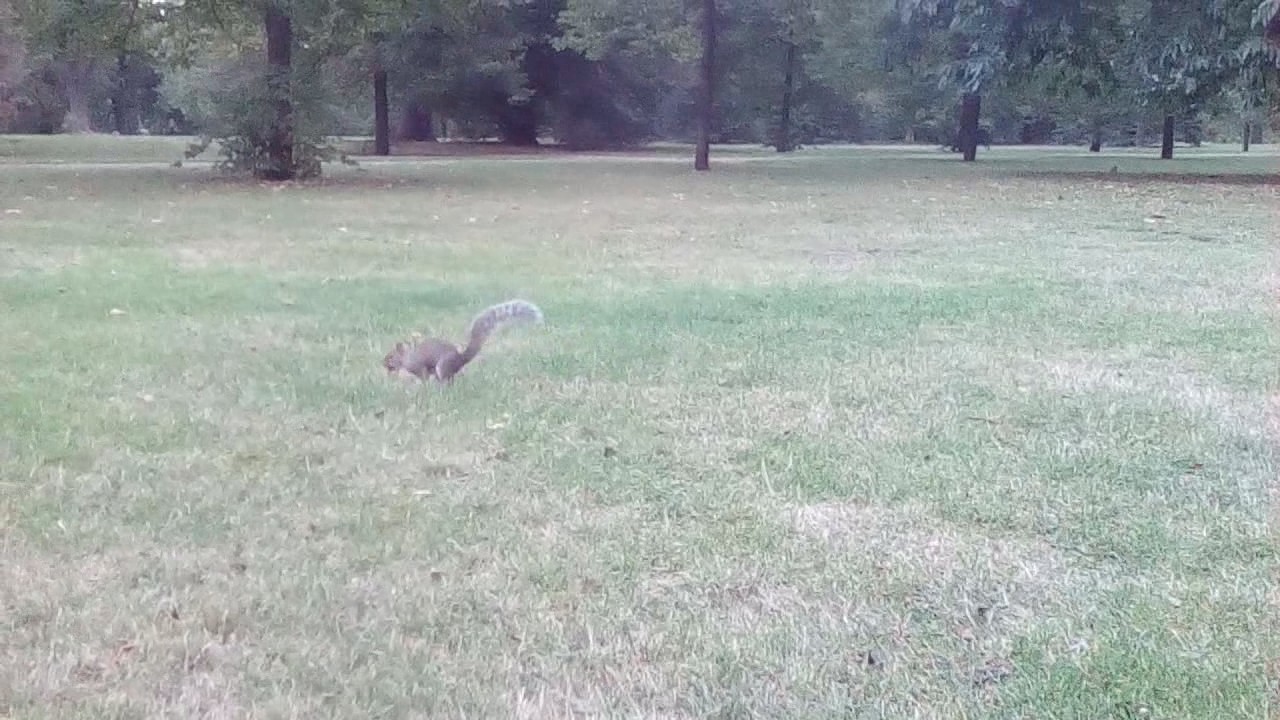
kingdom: Animalia
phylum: Chordata
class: Mammalia
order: Rodentia
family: Sciuridae
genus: Sciurus
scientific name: Sciurus carolinensis
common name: Eastern gray squirrel
